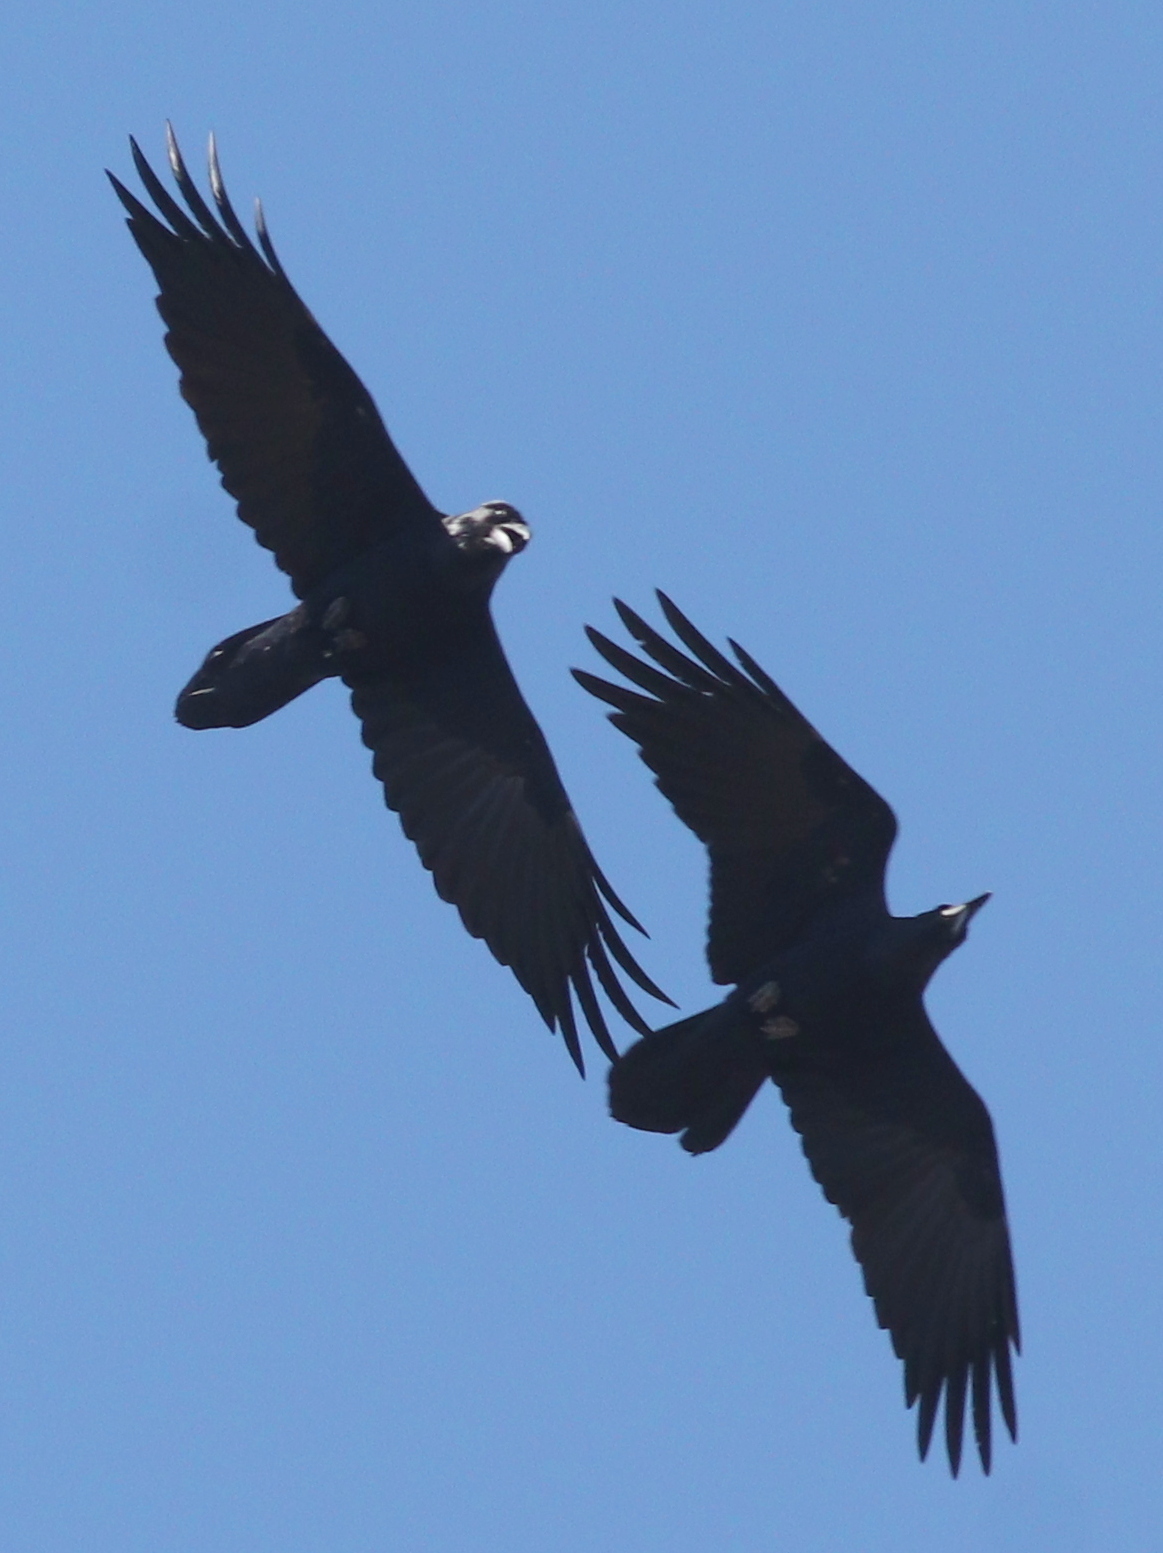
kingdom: Animalia
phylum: Chordata
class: Aves
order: Passeriformes
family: Corvidae
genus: Corvus
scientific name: Corvus corax
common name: Common raven
